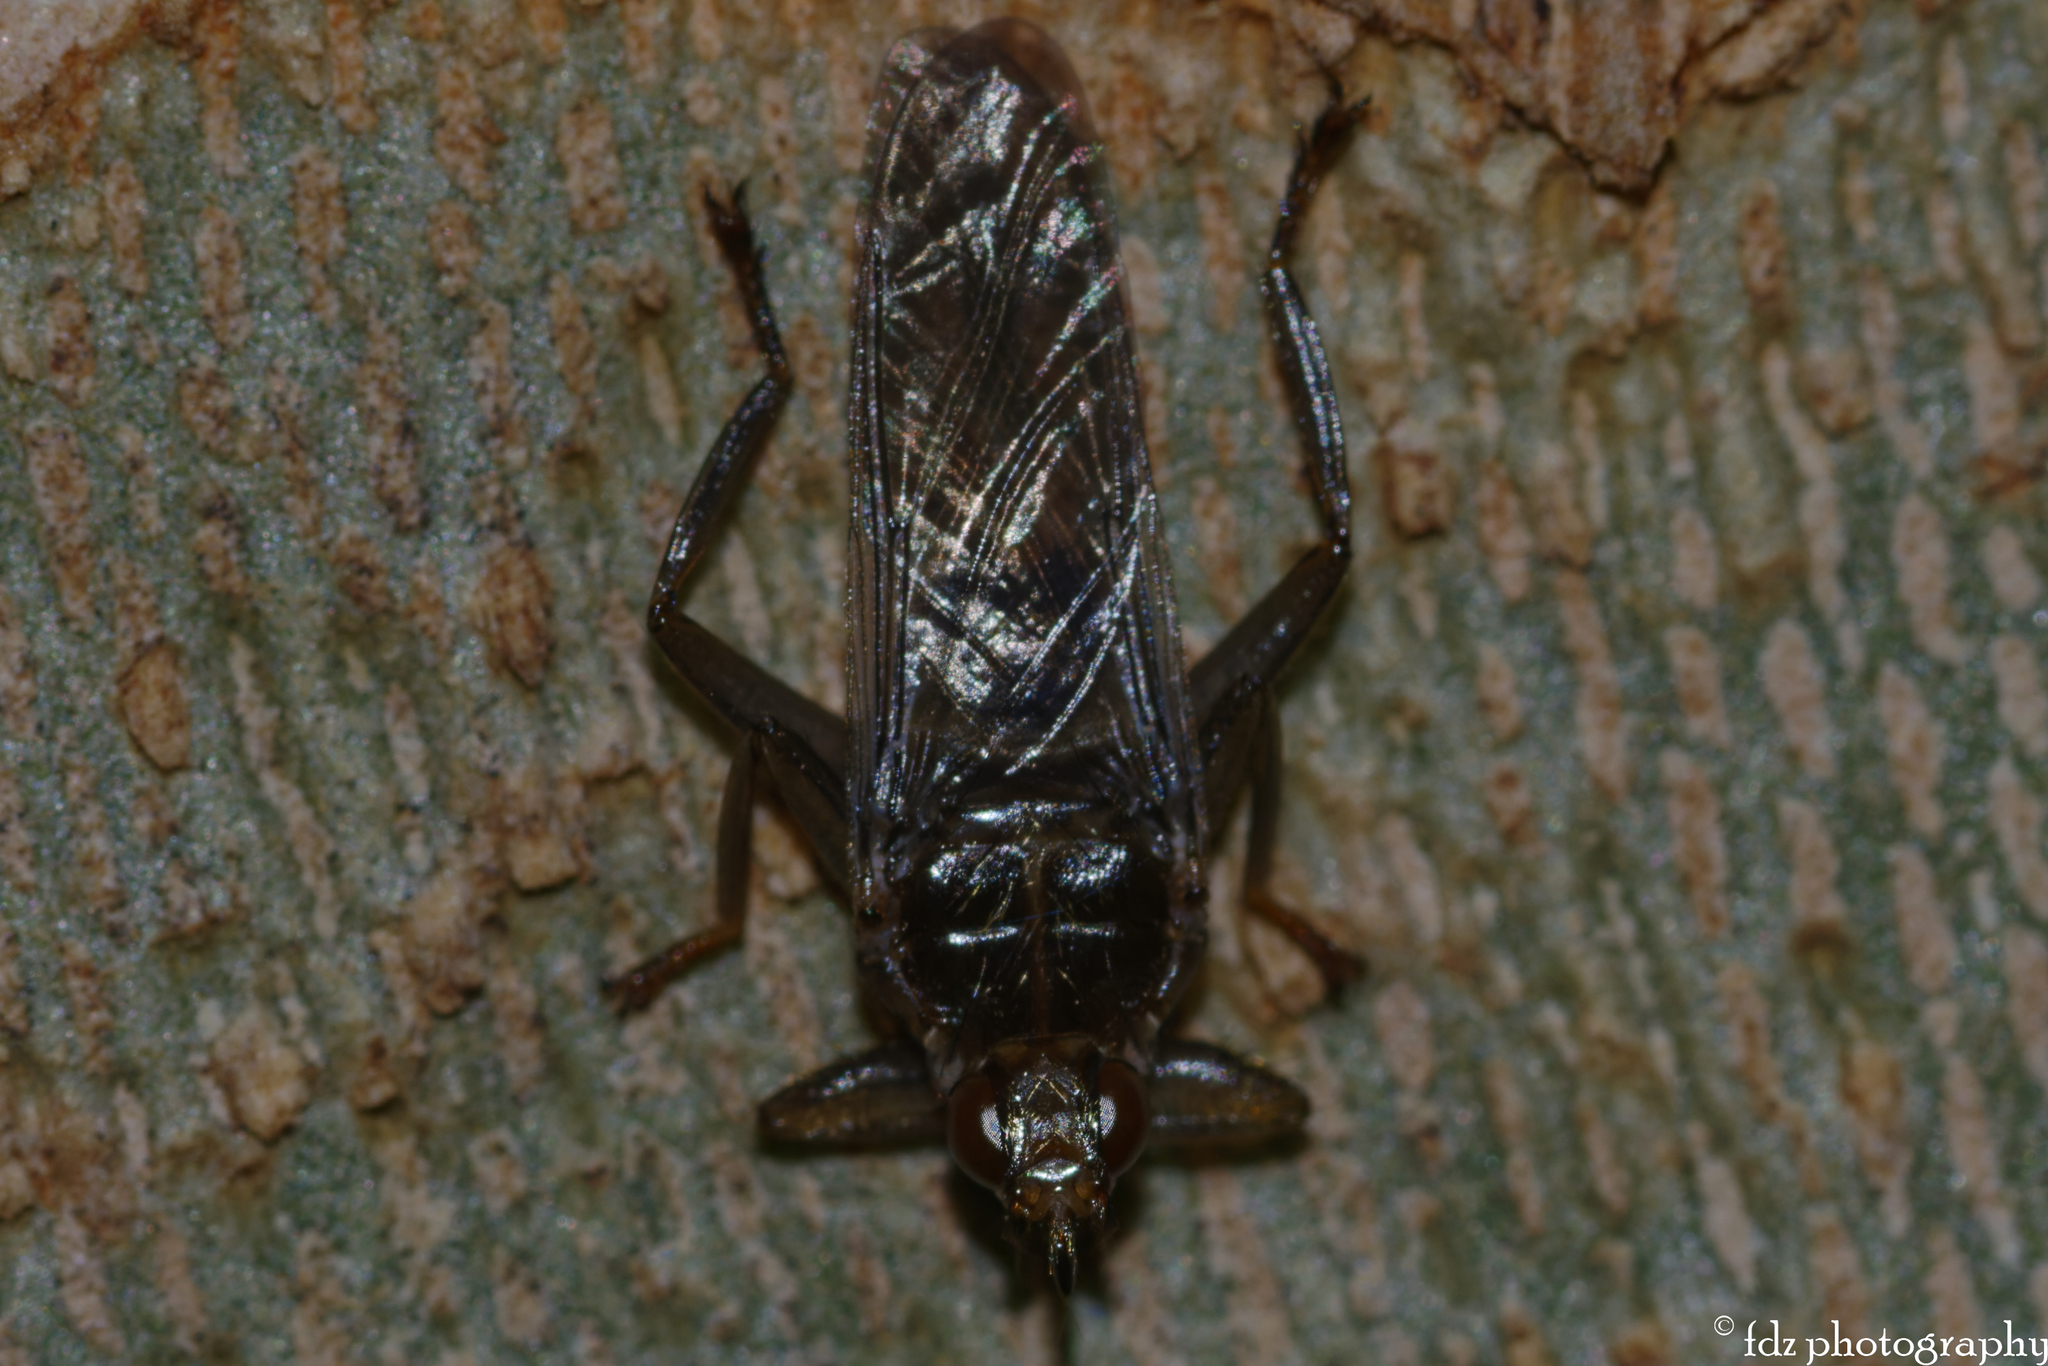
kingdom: Animalia
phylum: Arthropoda
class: Insecta
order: Diptera
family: Hippoboscidae
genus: Pseudolynchia
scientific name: Pseudolynchia canariensis
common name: Louse fly
